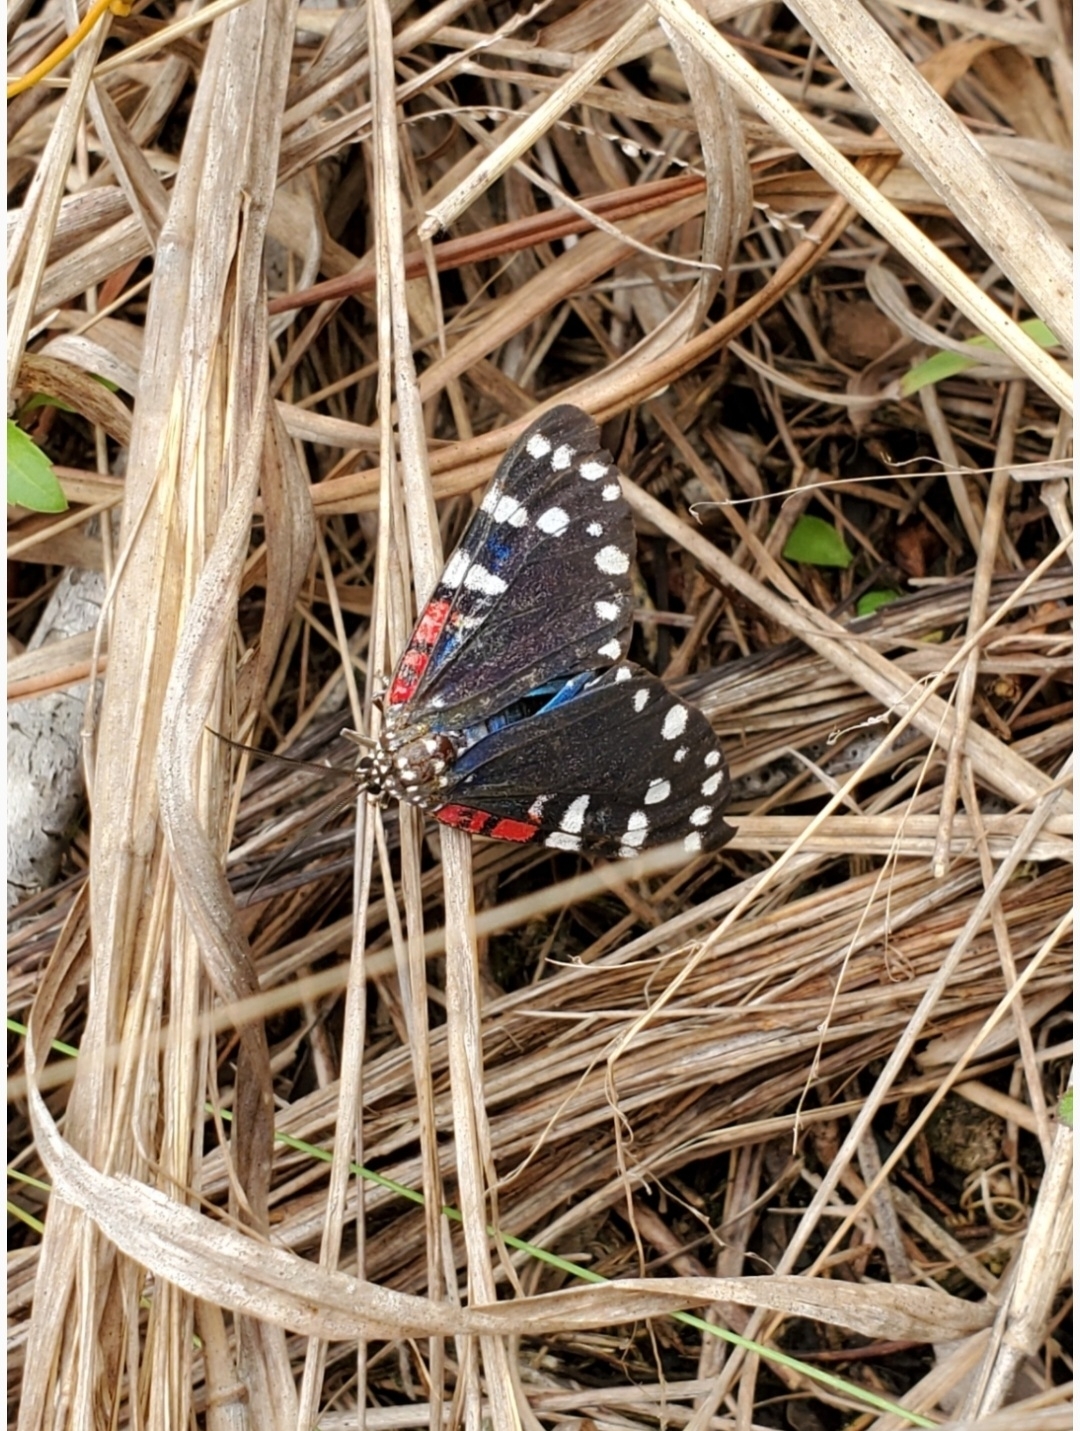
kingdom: Animalia
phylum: Arthropoda
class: Insecta
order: Lepidoptera
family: Erebidae
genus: Composia
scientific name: Composia fidelissima
